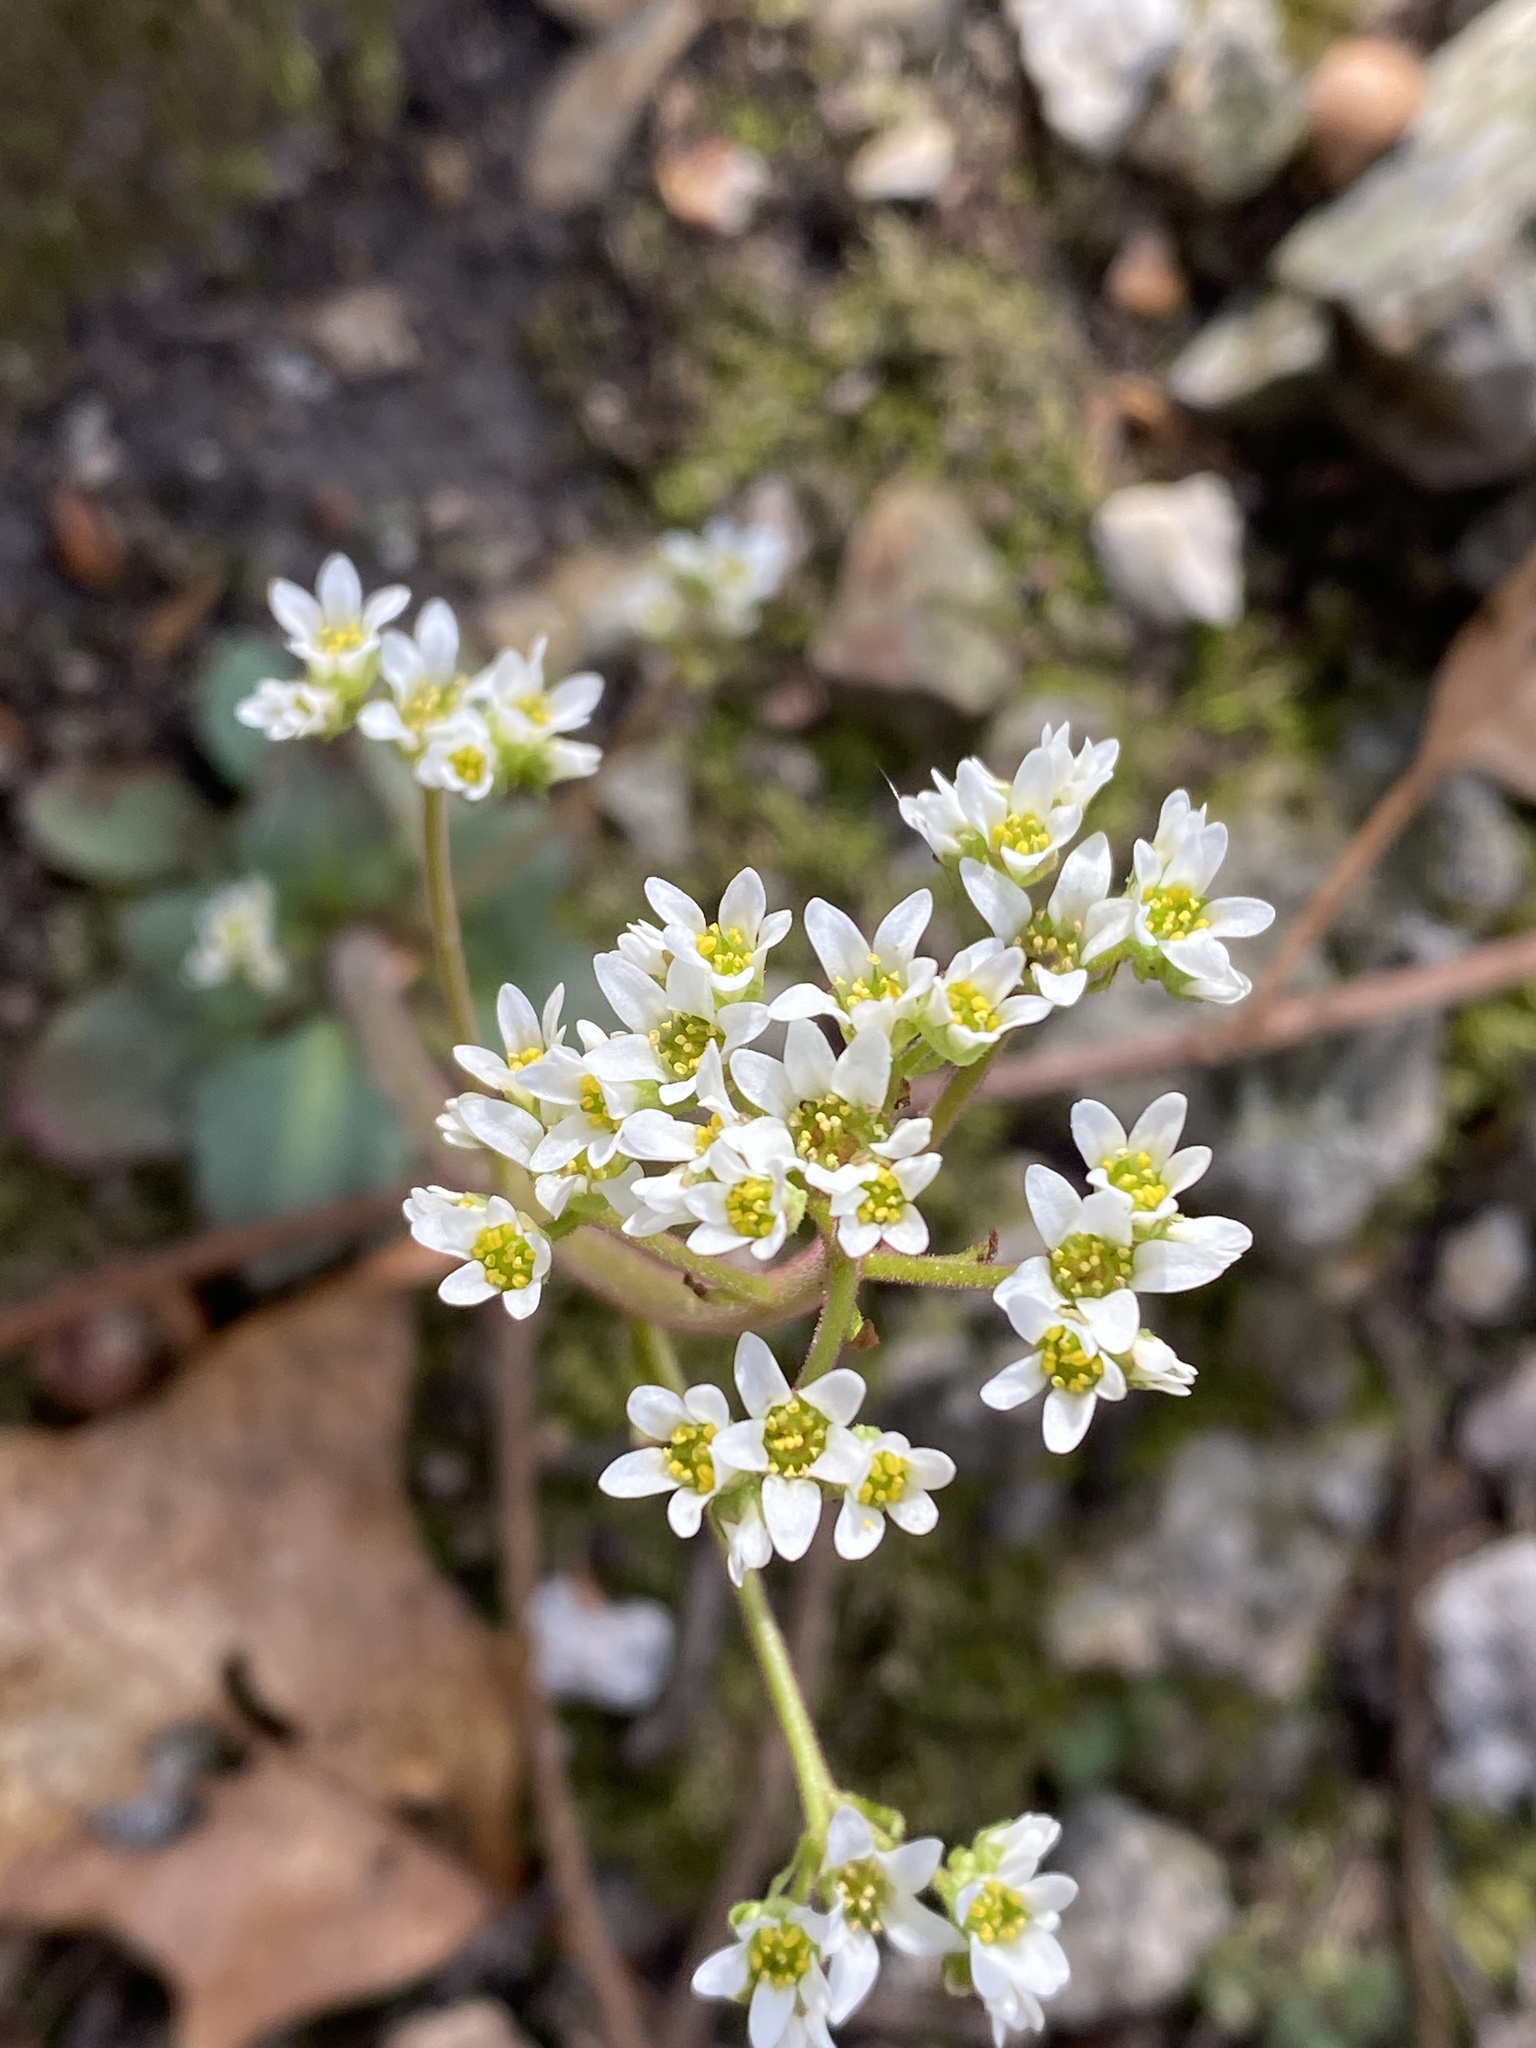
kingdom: Plantae
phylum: Tracheophyta
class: Magnoliopsida
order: Saxifragales
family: Saxifragaceae
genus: Micranthes
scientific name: Micranthes virginiensis
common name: Early saxifrage
